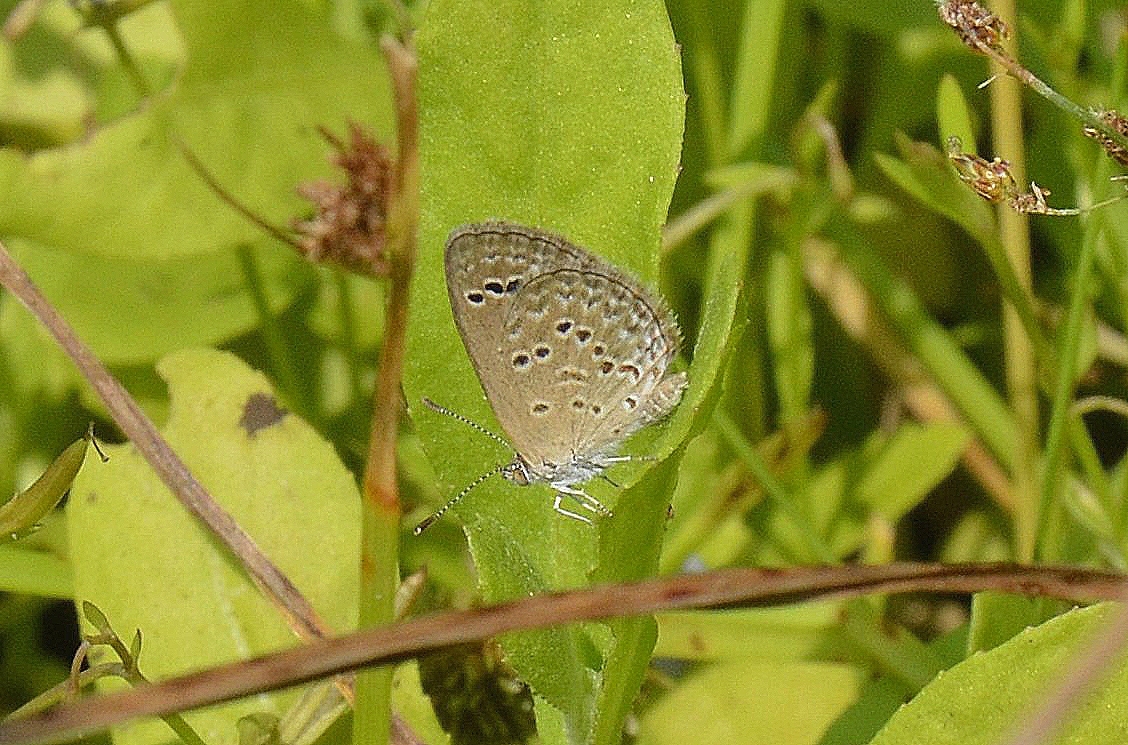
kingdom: Animalia
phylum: Arthropoda
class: Insecta
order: Lepidoptera
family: Lycaenidae
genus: Zizina
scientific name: Zizina otis
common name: Lesser grass blue
